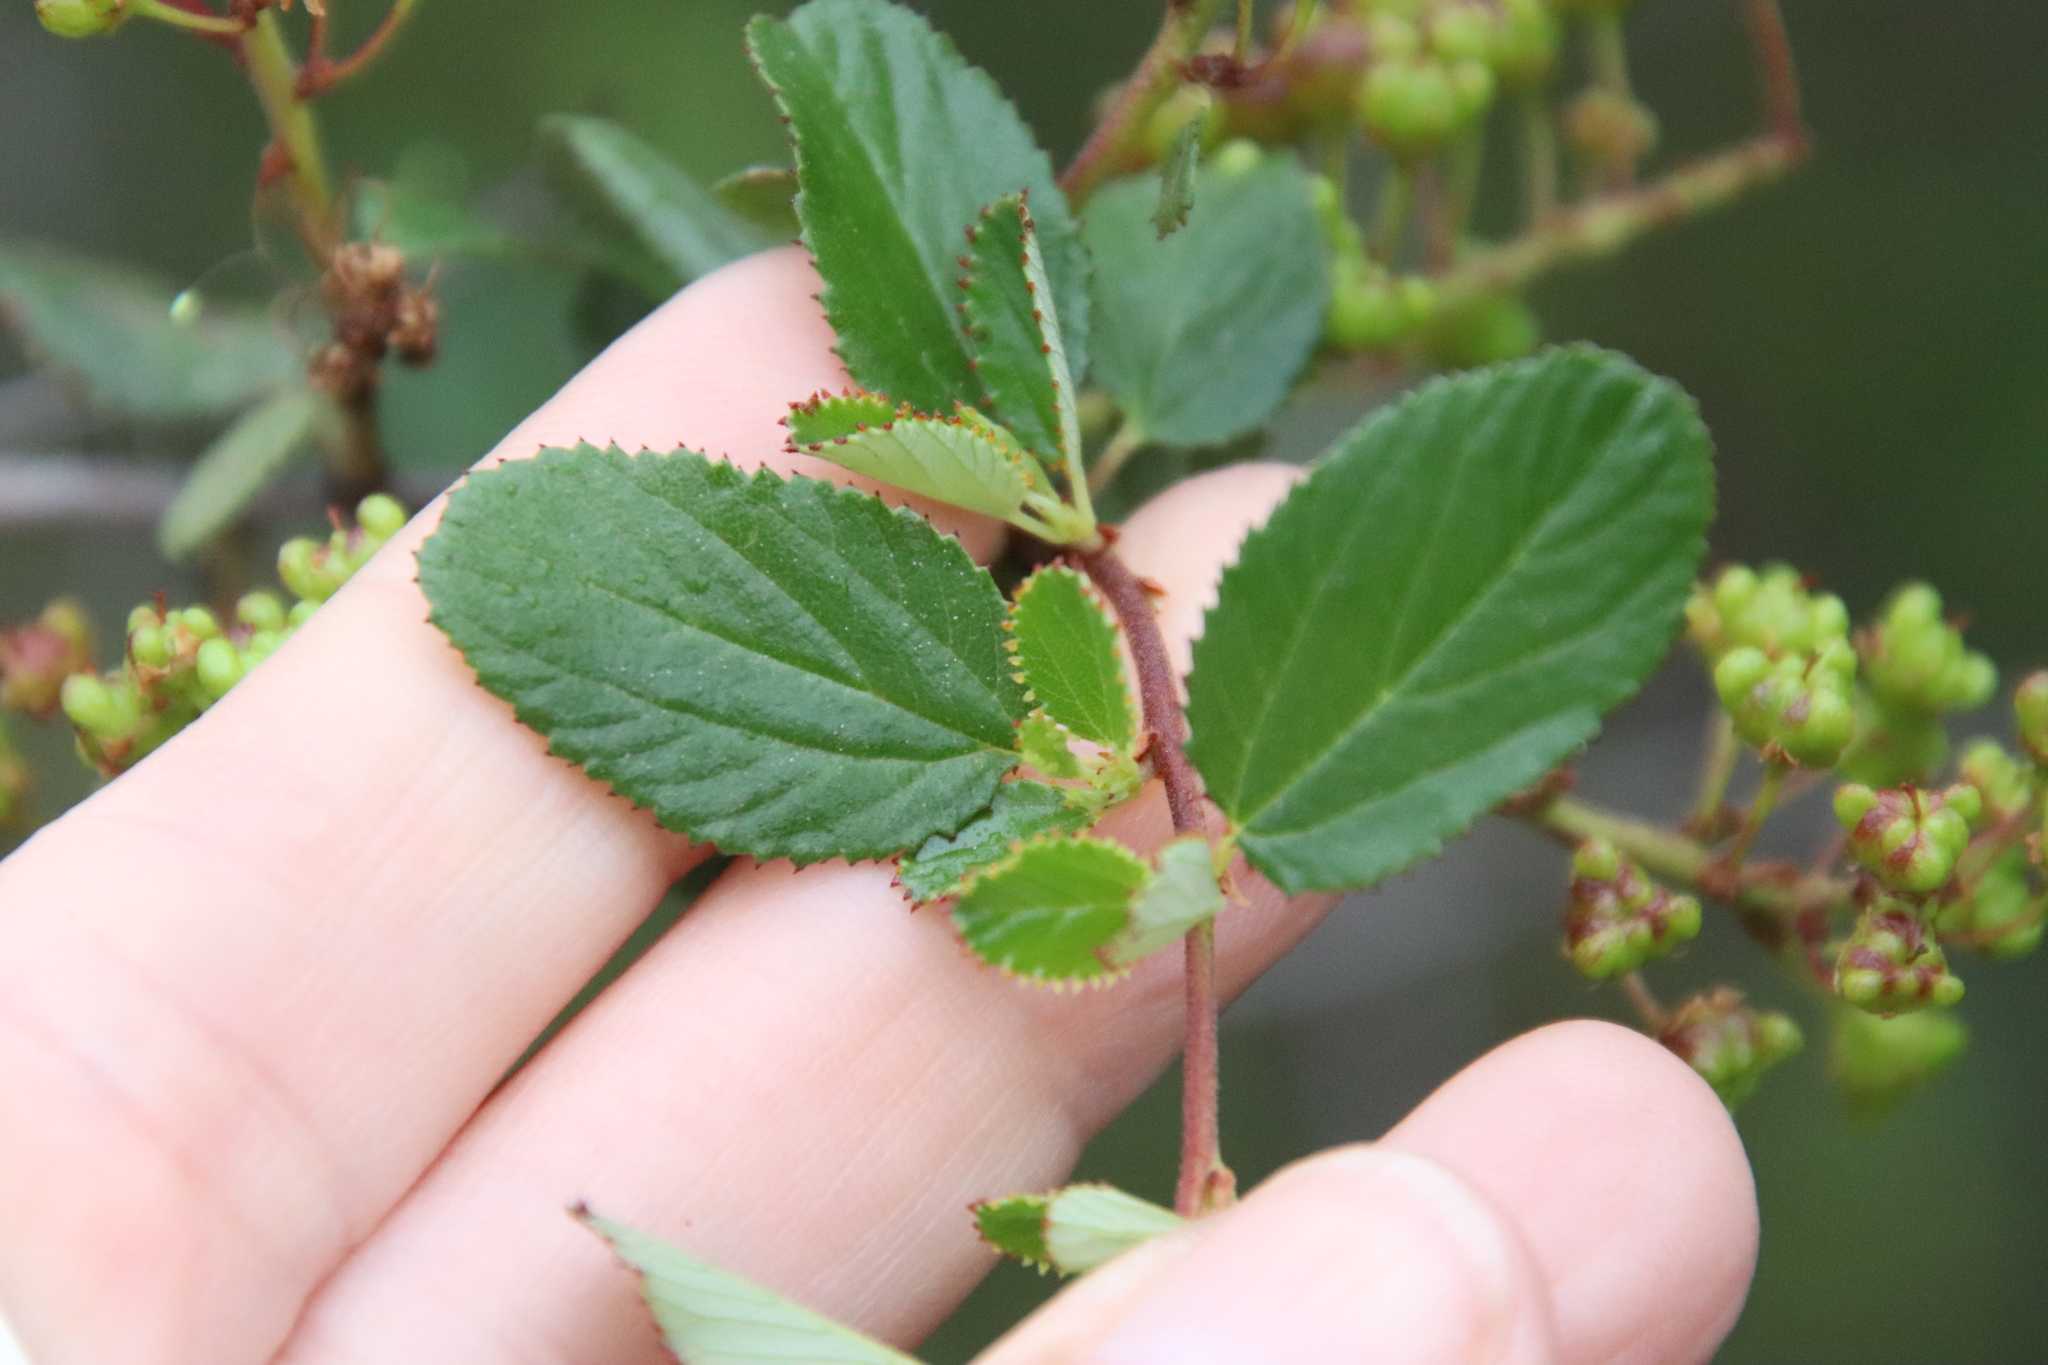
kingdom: Plantae
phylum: Tracheophyta
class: Magnoliopsida
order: Rosales
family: Rhamnaceae
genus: Ceanothus
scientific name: Ceanothus tomentosus
